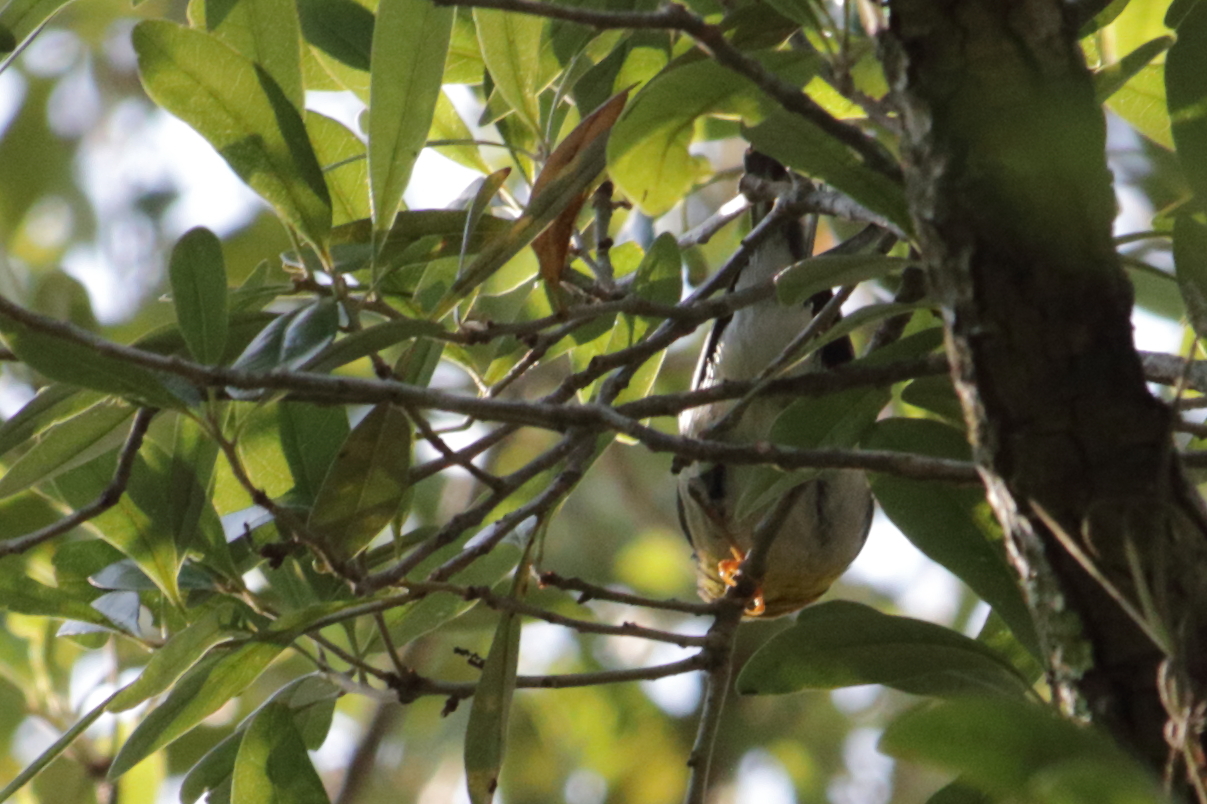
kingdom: Animalia
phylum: Chordata
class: Aves
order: Passeriformes
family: Parulidae
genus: Setophaga
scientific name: Setophaga americana
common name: Northern parula
